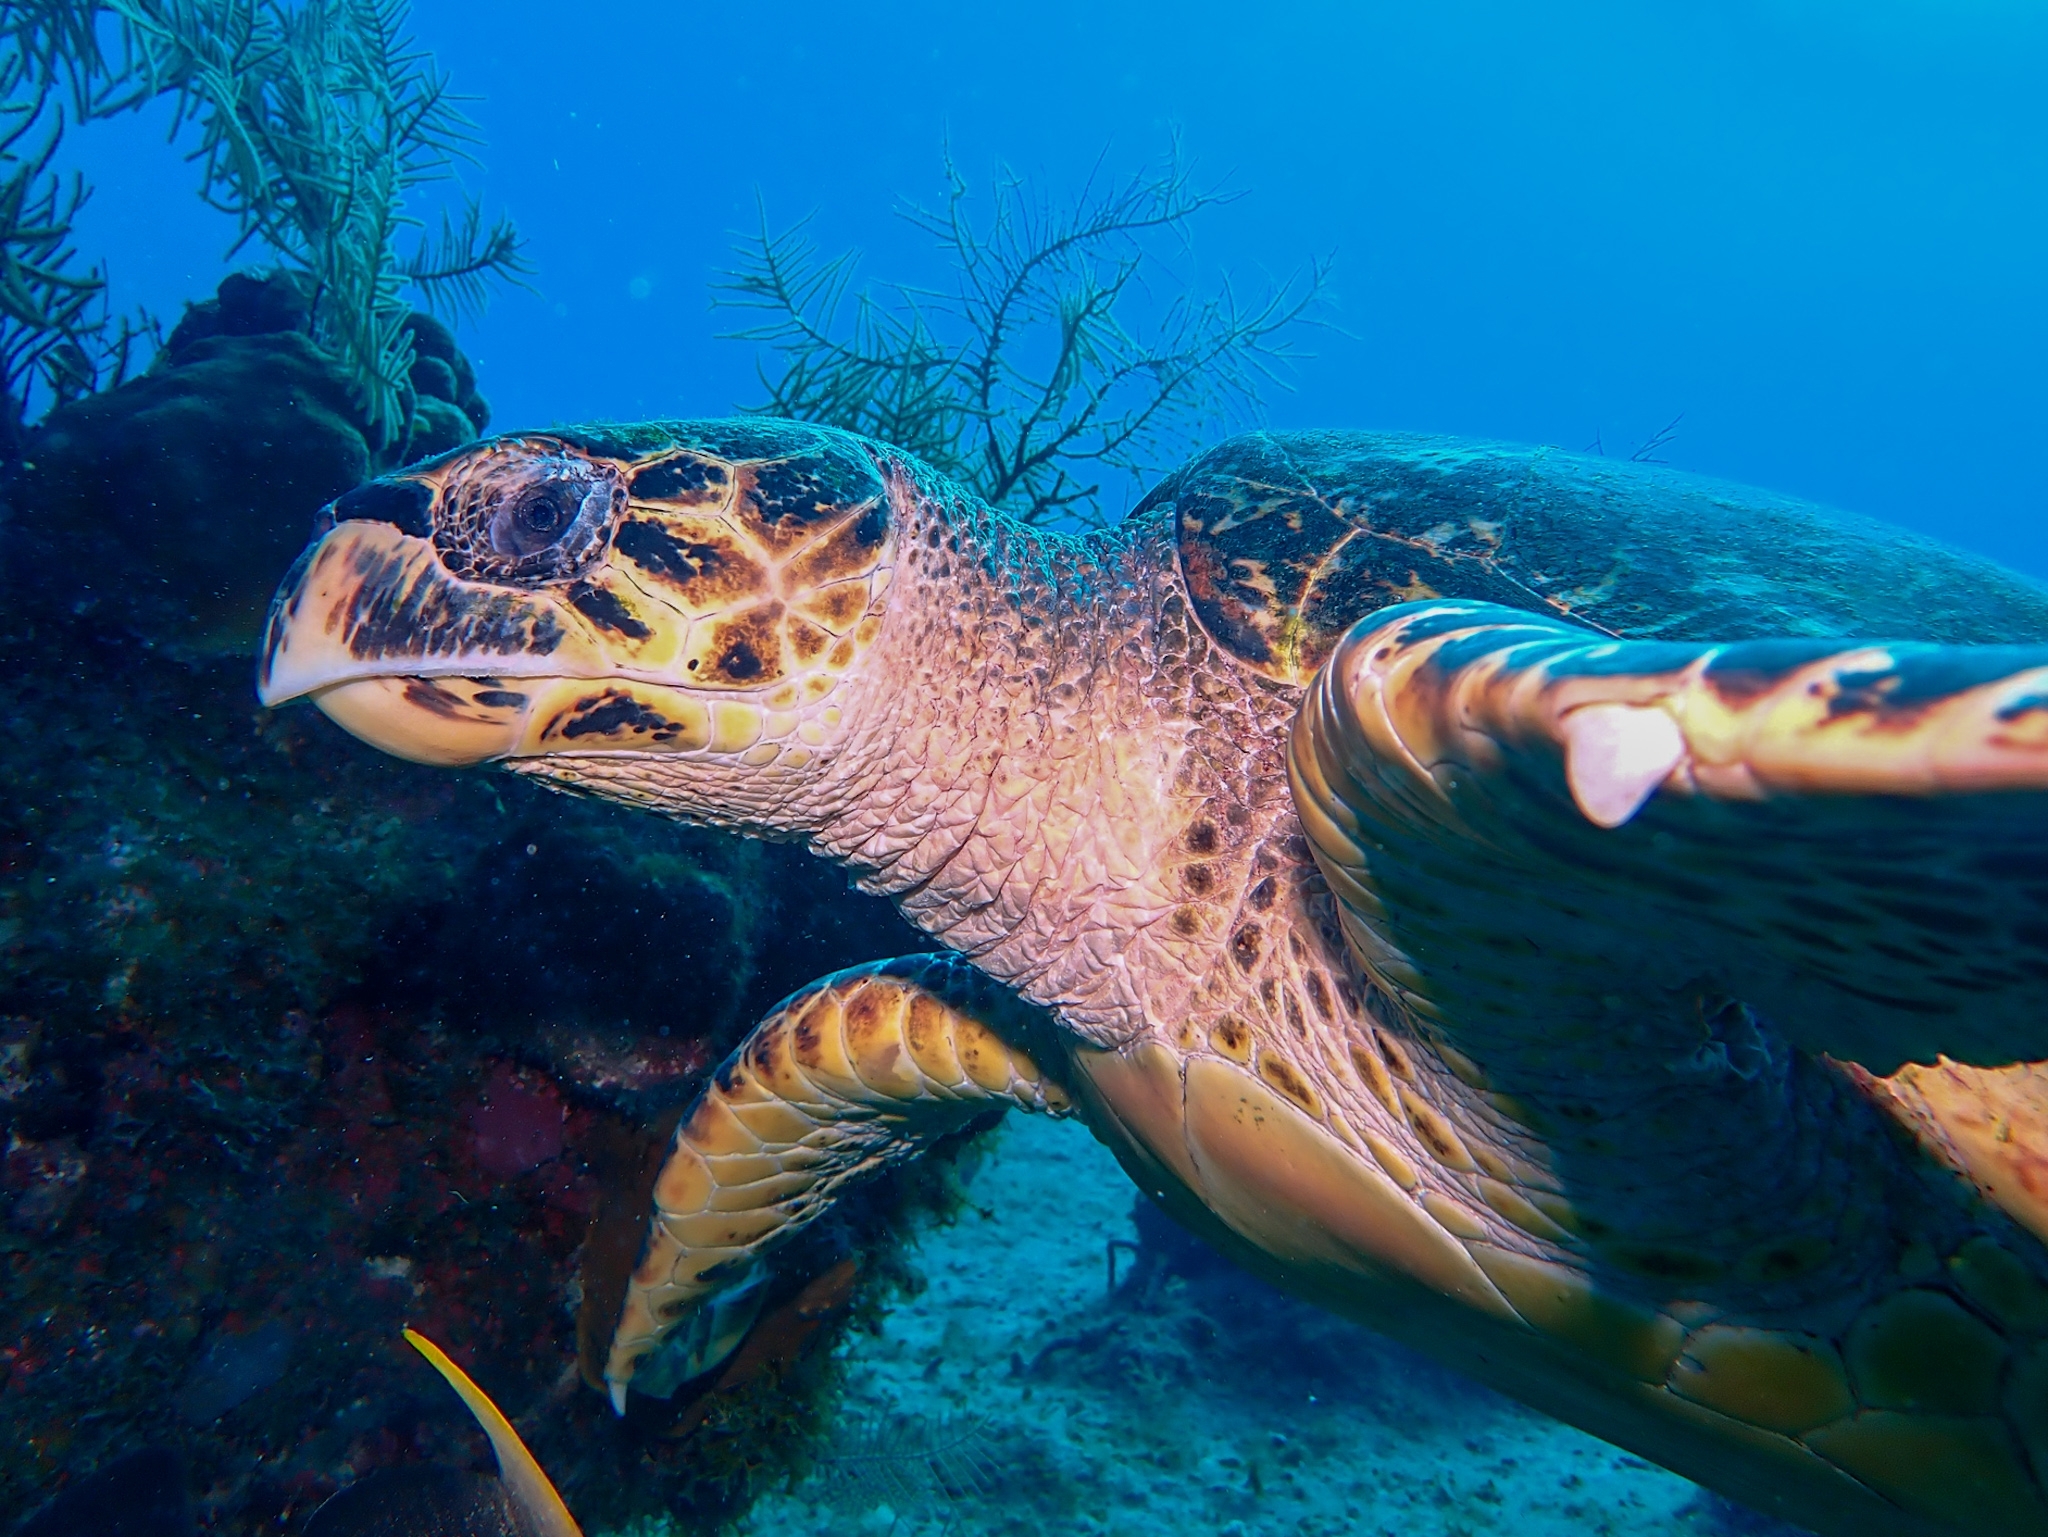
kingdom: Animalia
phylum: Chordata
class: Testudines
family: Cheloniidae
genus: Eretmochelys
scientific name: Eretmochelys imbricata
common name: Hawksbill turtle
